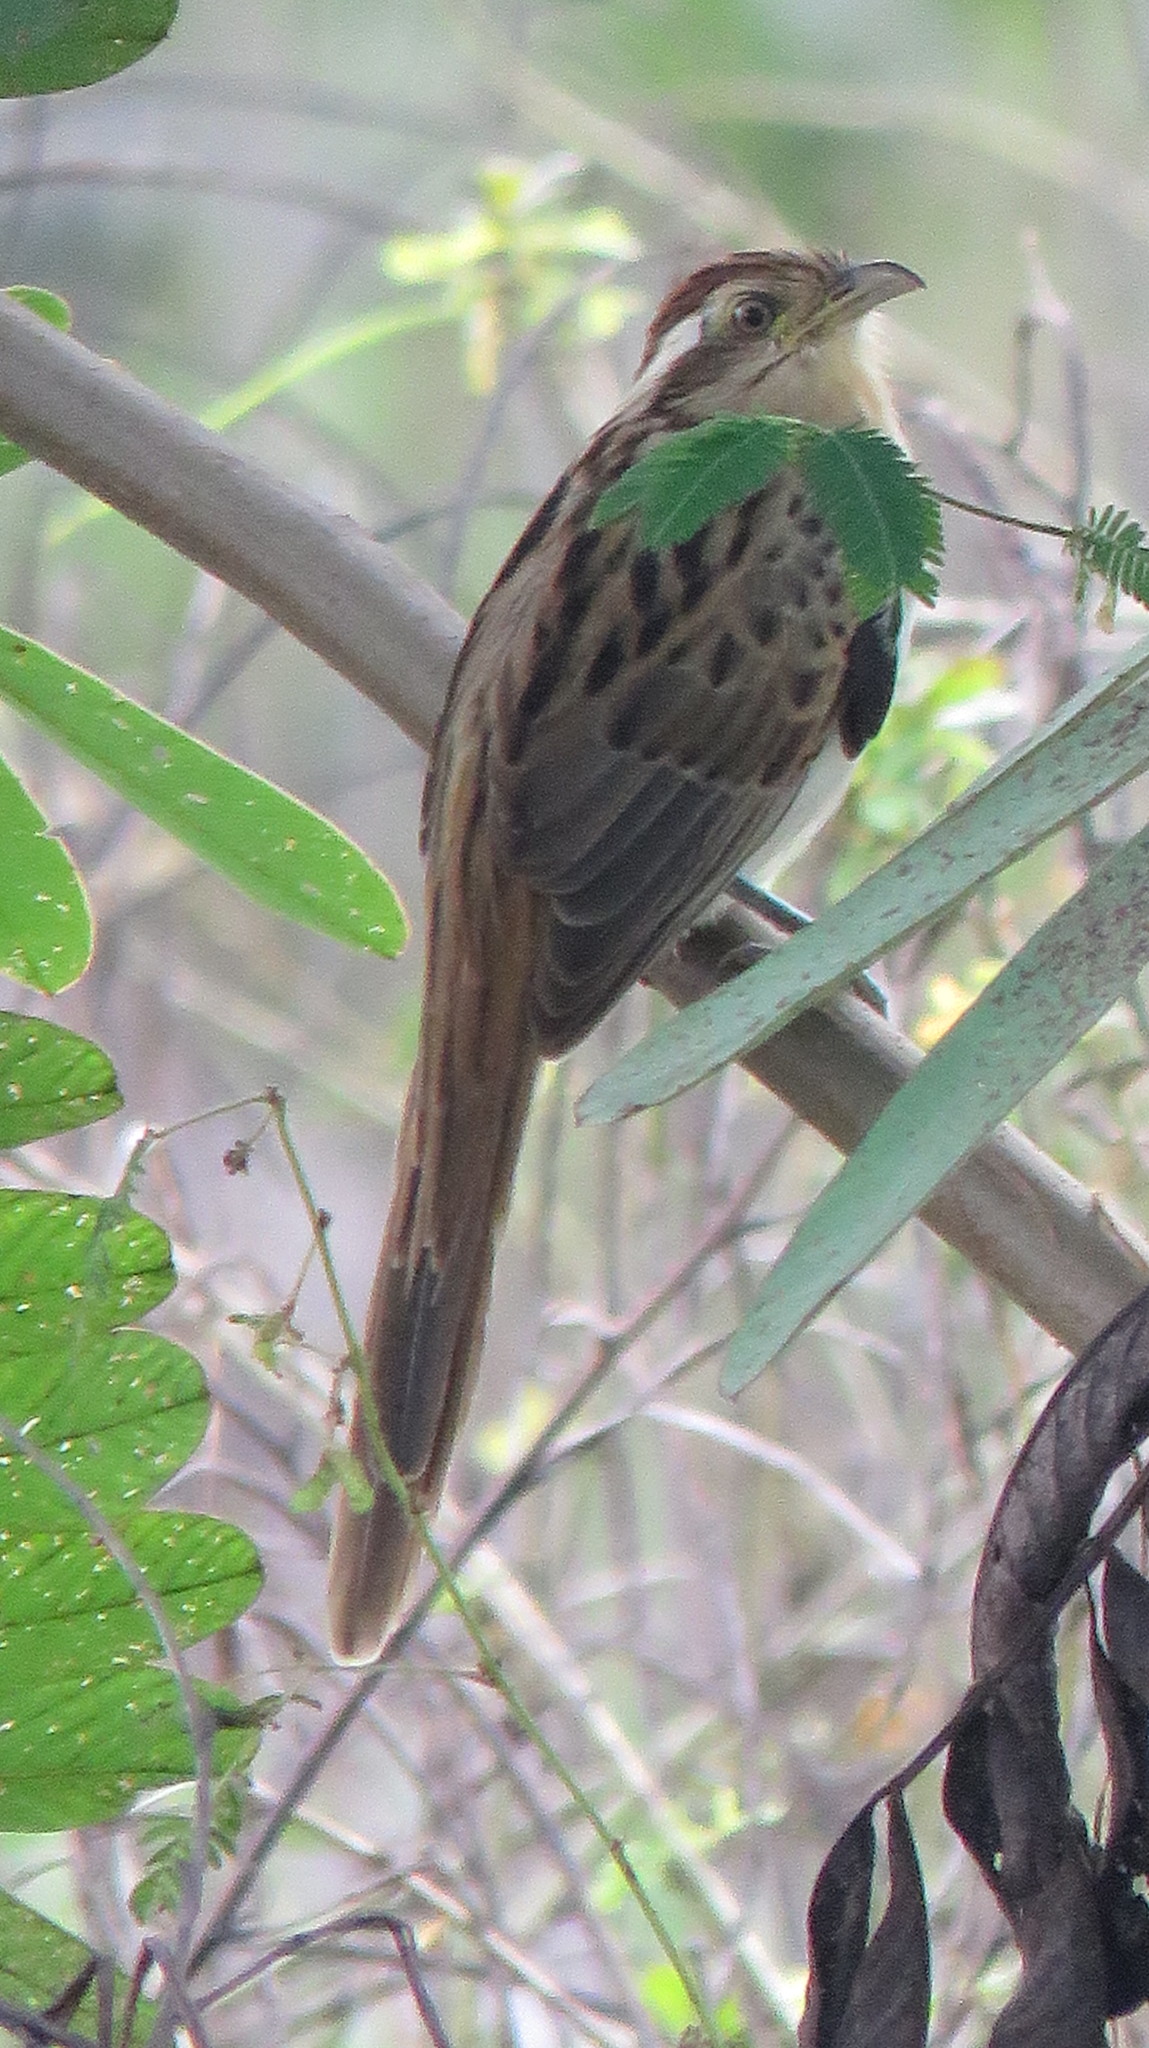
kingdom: Animalia
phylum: Chordata
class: Aves
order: Cuculiformes
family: Cuculidae
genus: Tapera
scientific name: Tapera naevia
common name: Striped cuckoo
